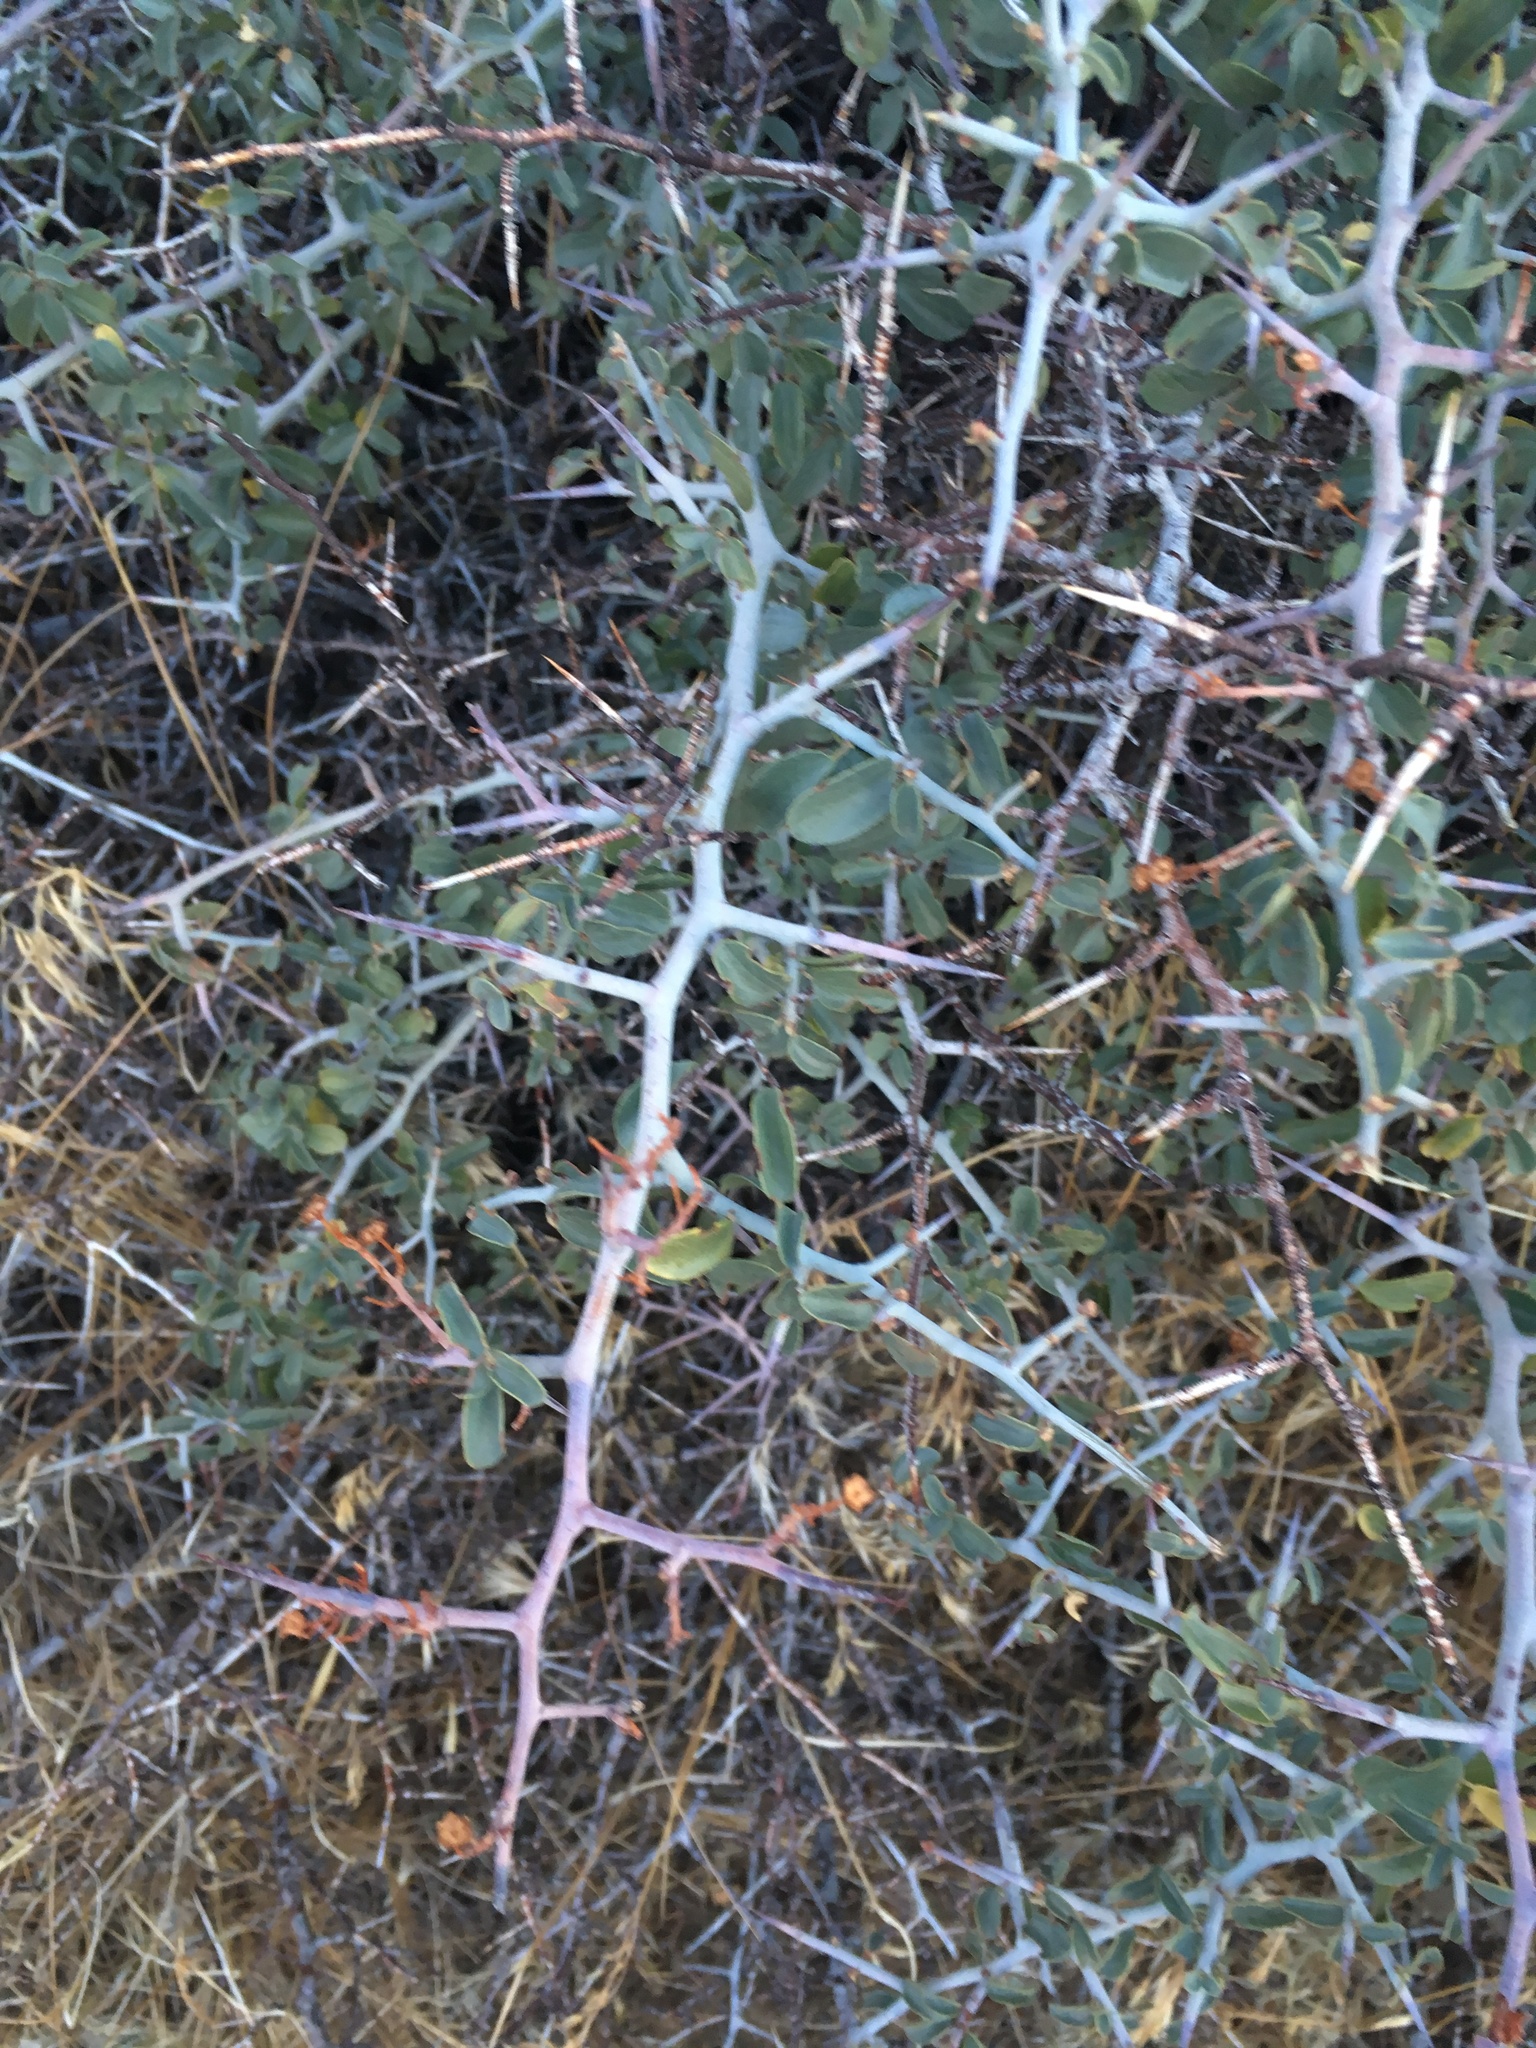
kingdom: Plantae
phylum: Tracheophyta
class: Magnoliopsida
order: Rosales
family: Rhamnaceae
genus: Ceanothus
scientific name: Ceanothus cordulatus
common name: Mountain whitethorn
